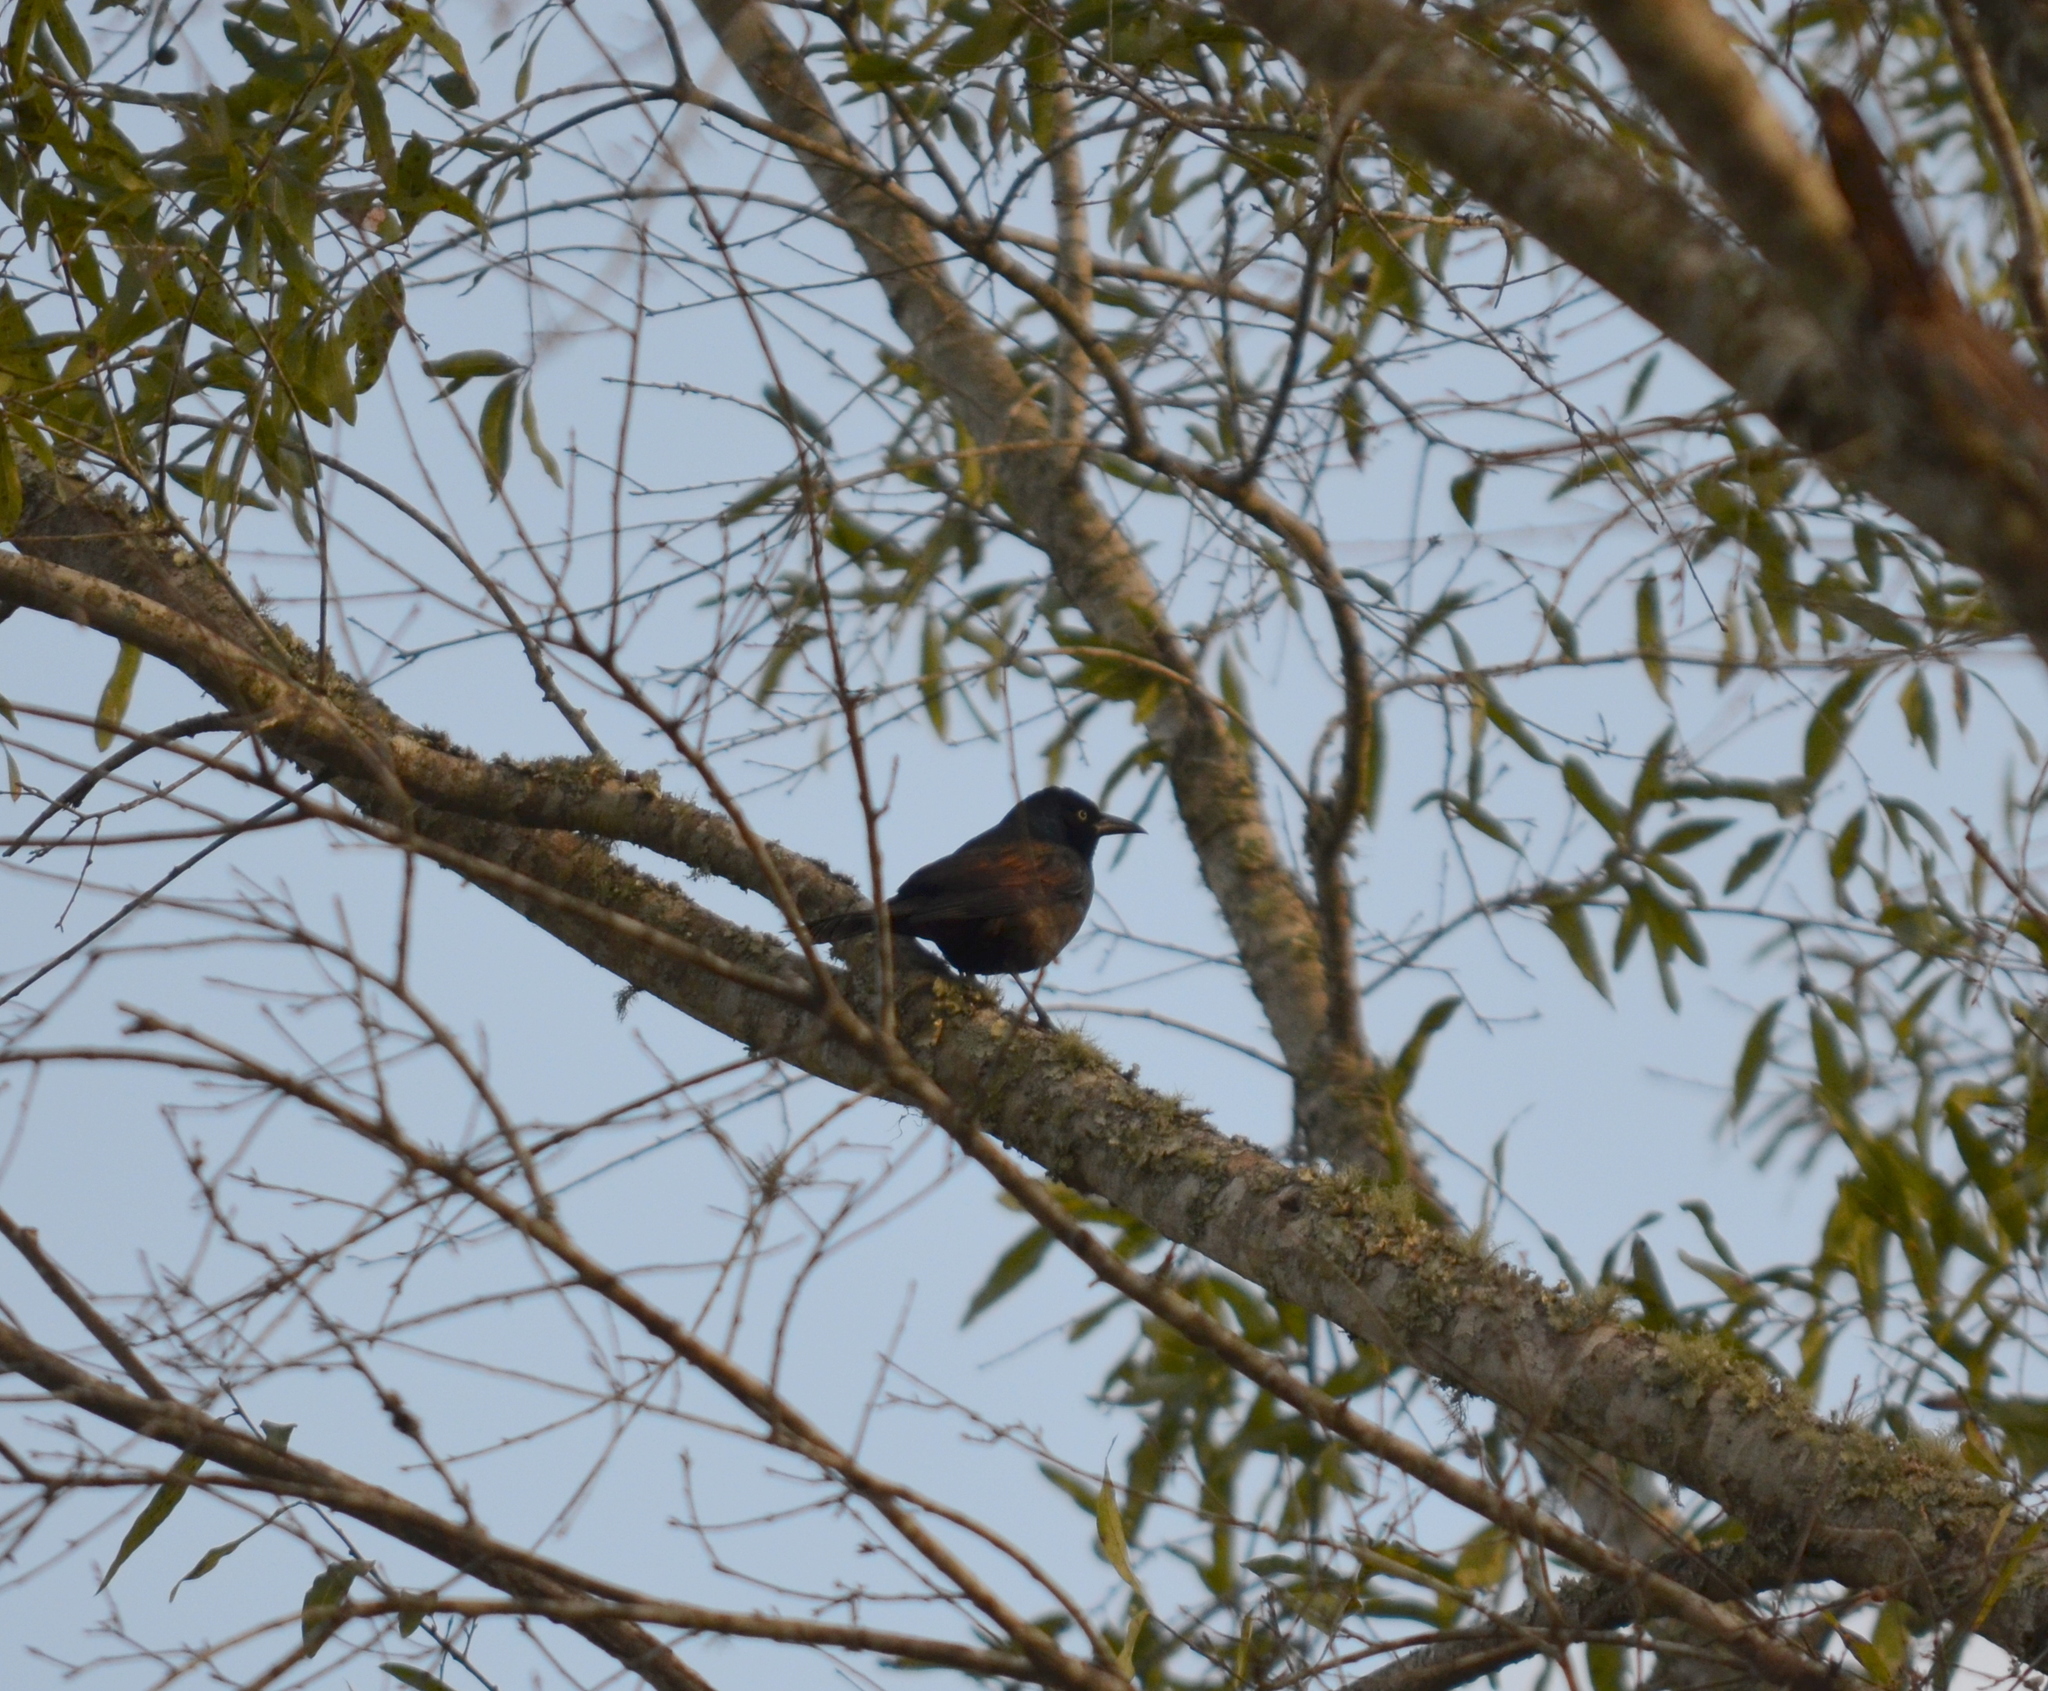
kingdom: Animalia
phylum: Chordata
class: Aves
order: Passeriformes
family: Icteridae
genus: Quiscalus
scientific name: Quiscalus quiscula
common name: Common grackle
